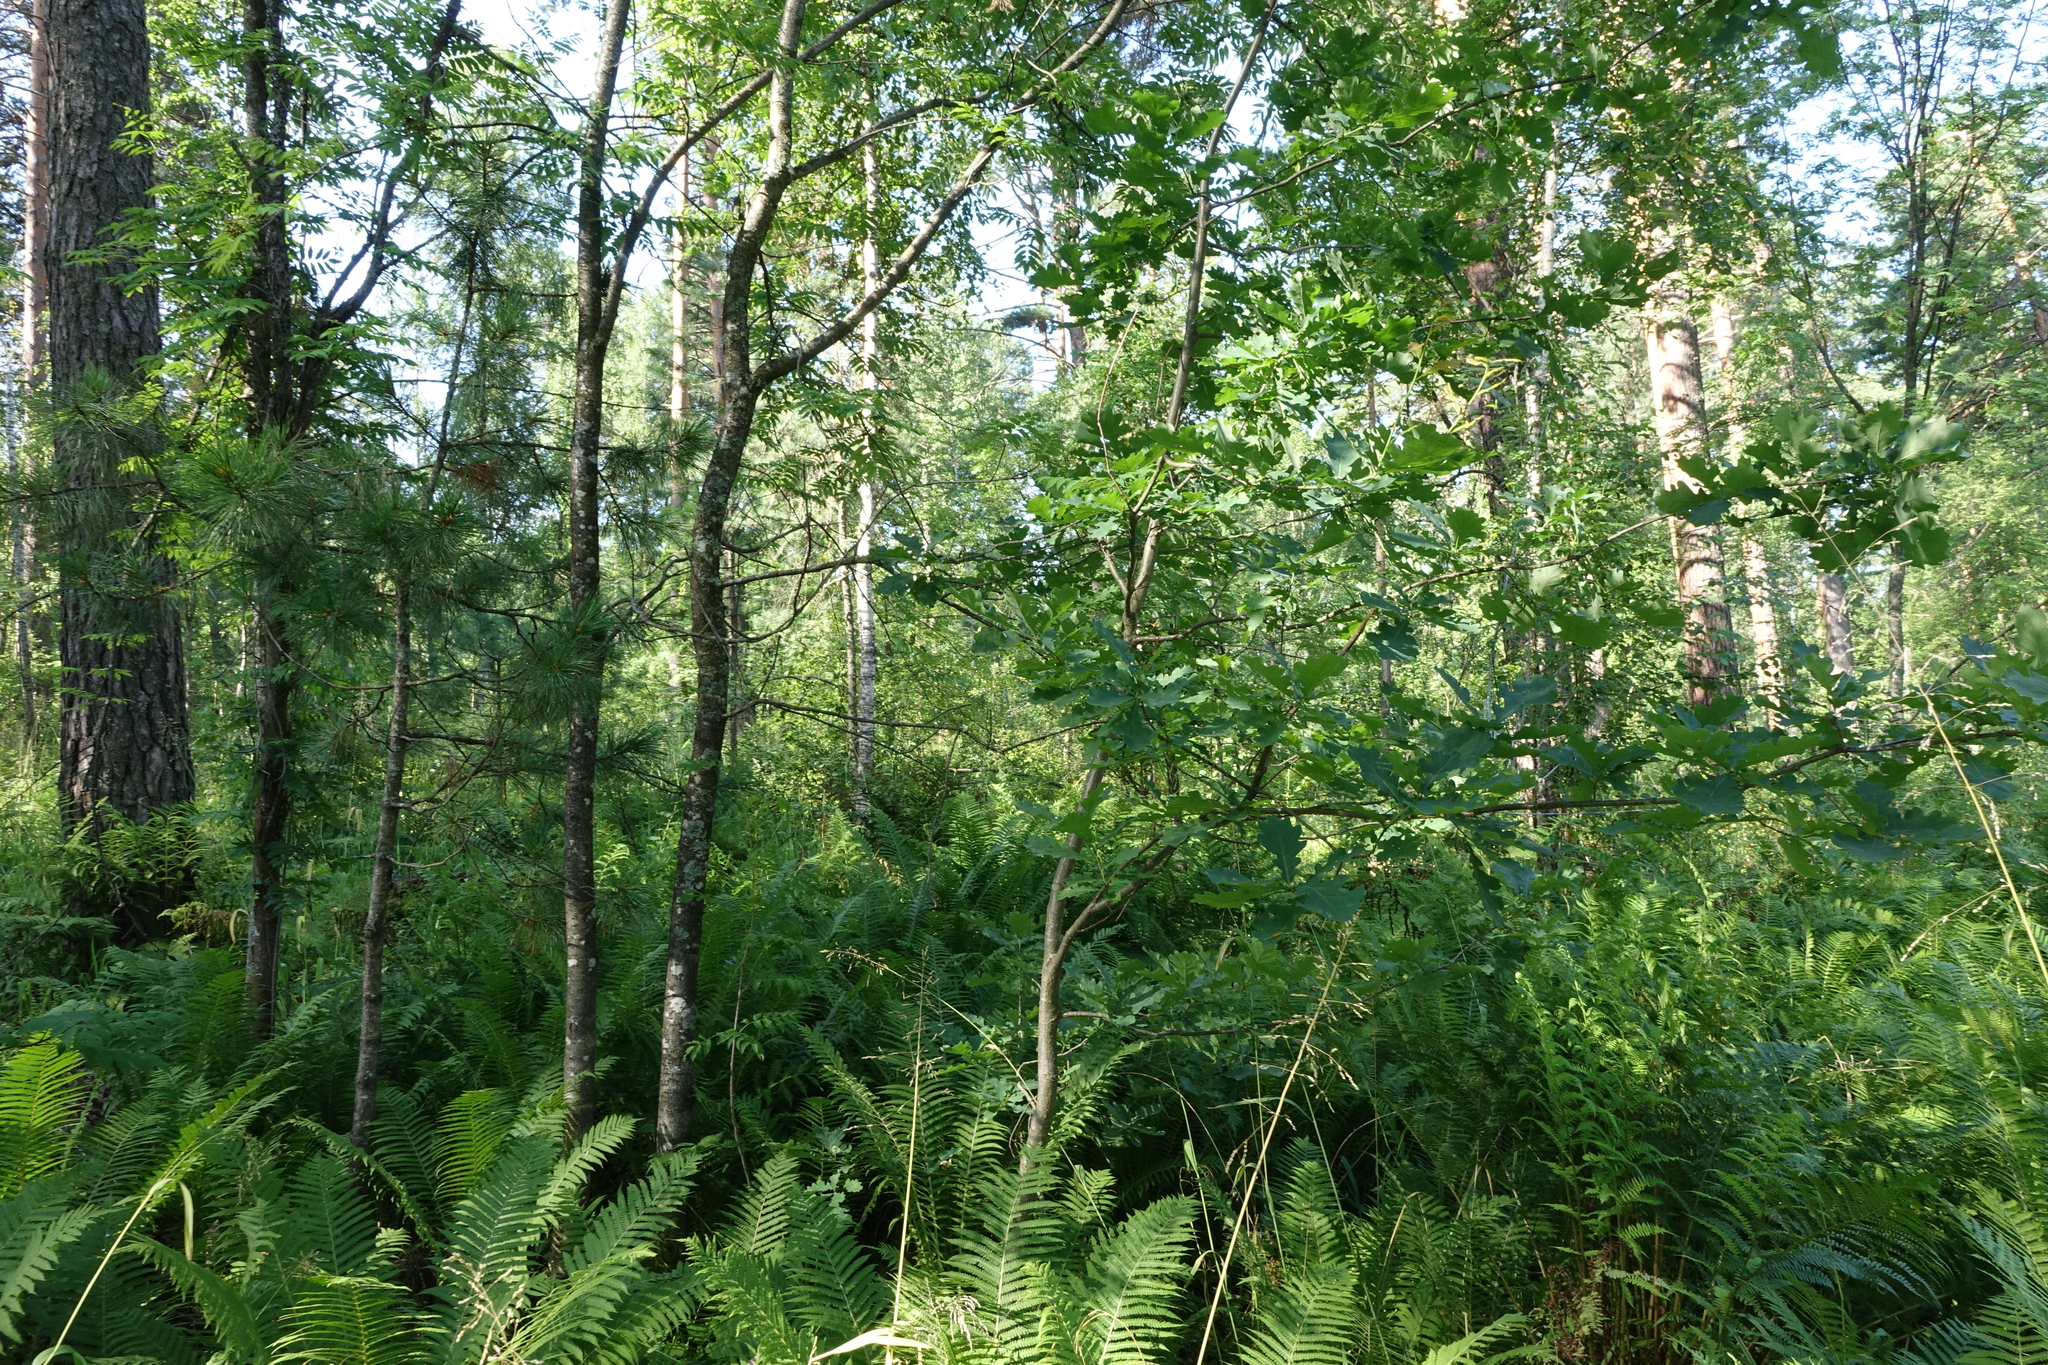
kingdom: Plantae
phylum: Tracheophyta
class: Magnoliopsida
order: Fagales
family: Fagaceae
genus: Quercus
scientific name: Quercus robur
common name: Pedunculate oak
